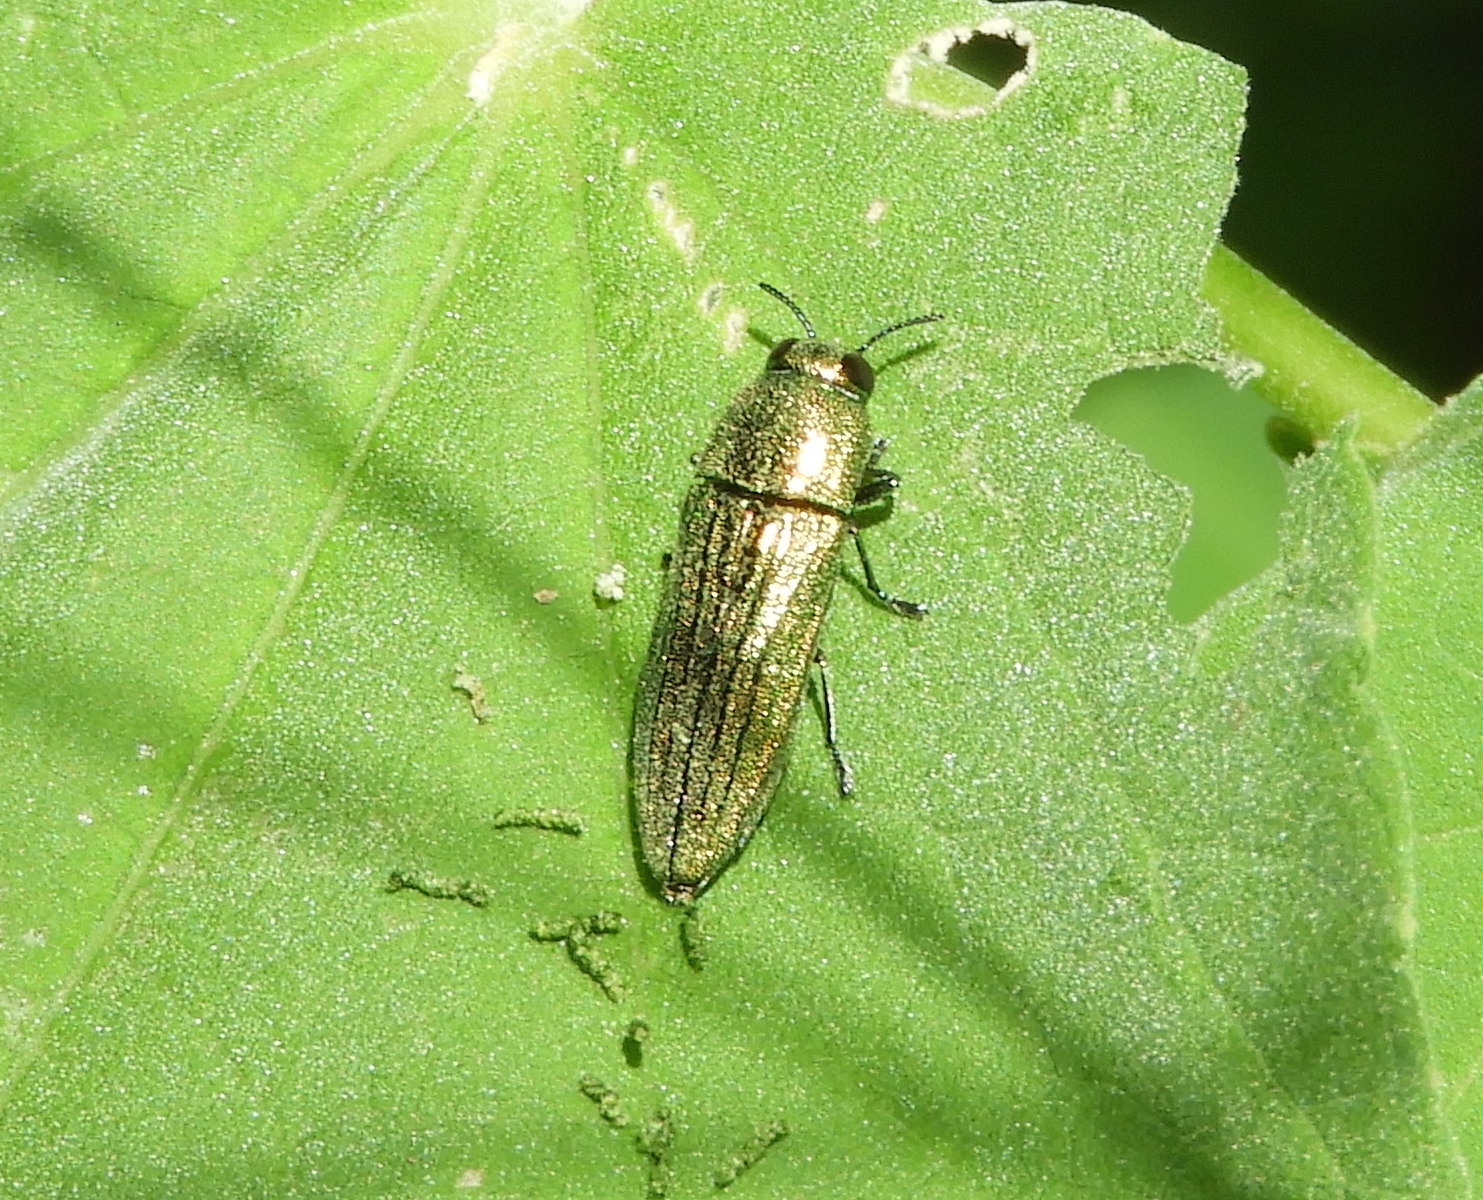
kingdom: Animalia
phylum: Arthropoda
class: Insecta
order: Coleoptera
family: Buprestidae
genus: Agaeocera
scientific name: Agaeocera scintillans
